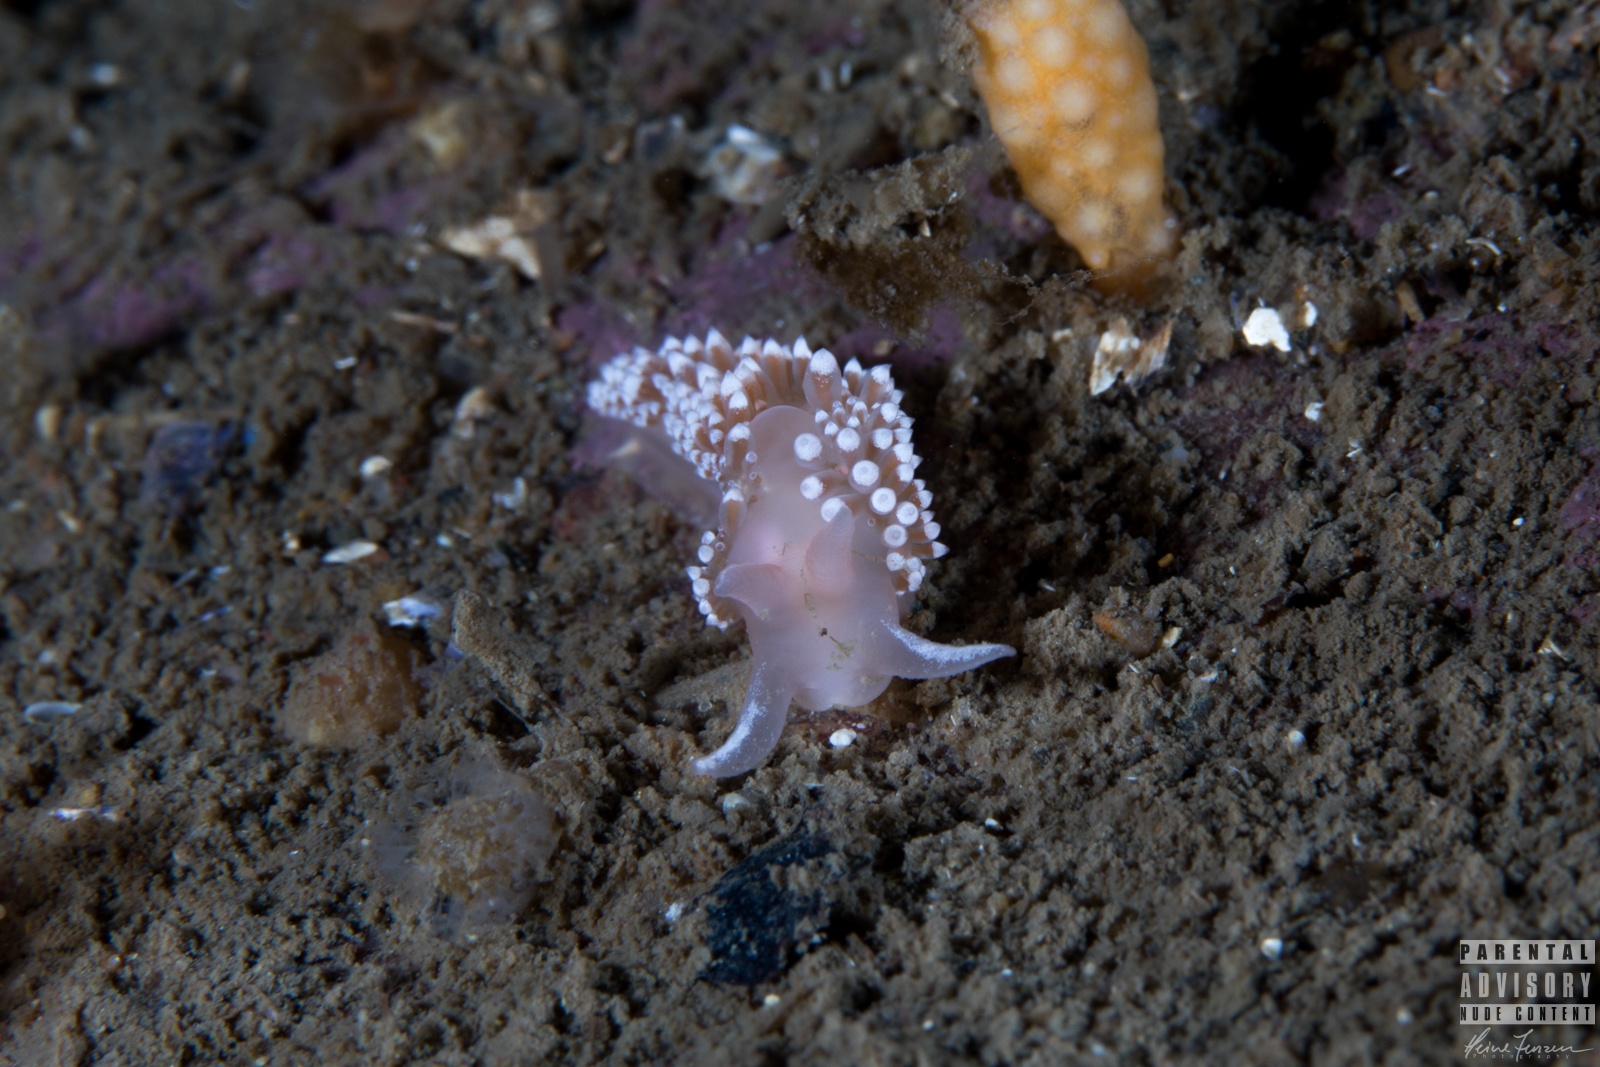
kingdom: Animalia
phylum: Mollusca
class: Gastropoda
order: Nudibranchia
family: Coryphellidae
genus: Coryphella
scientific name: Coryphella verrucosa
